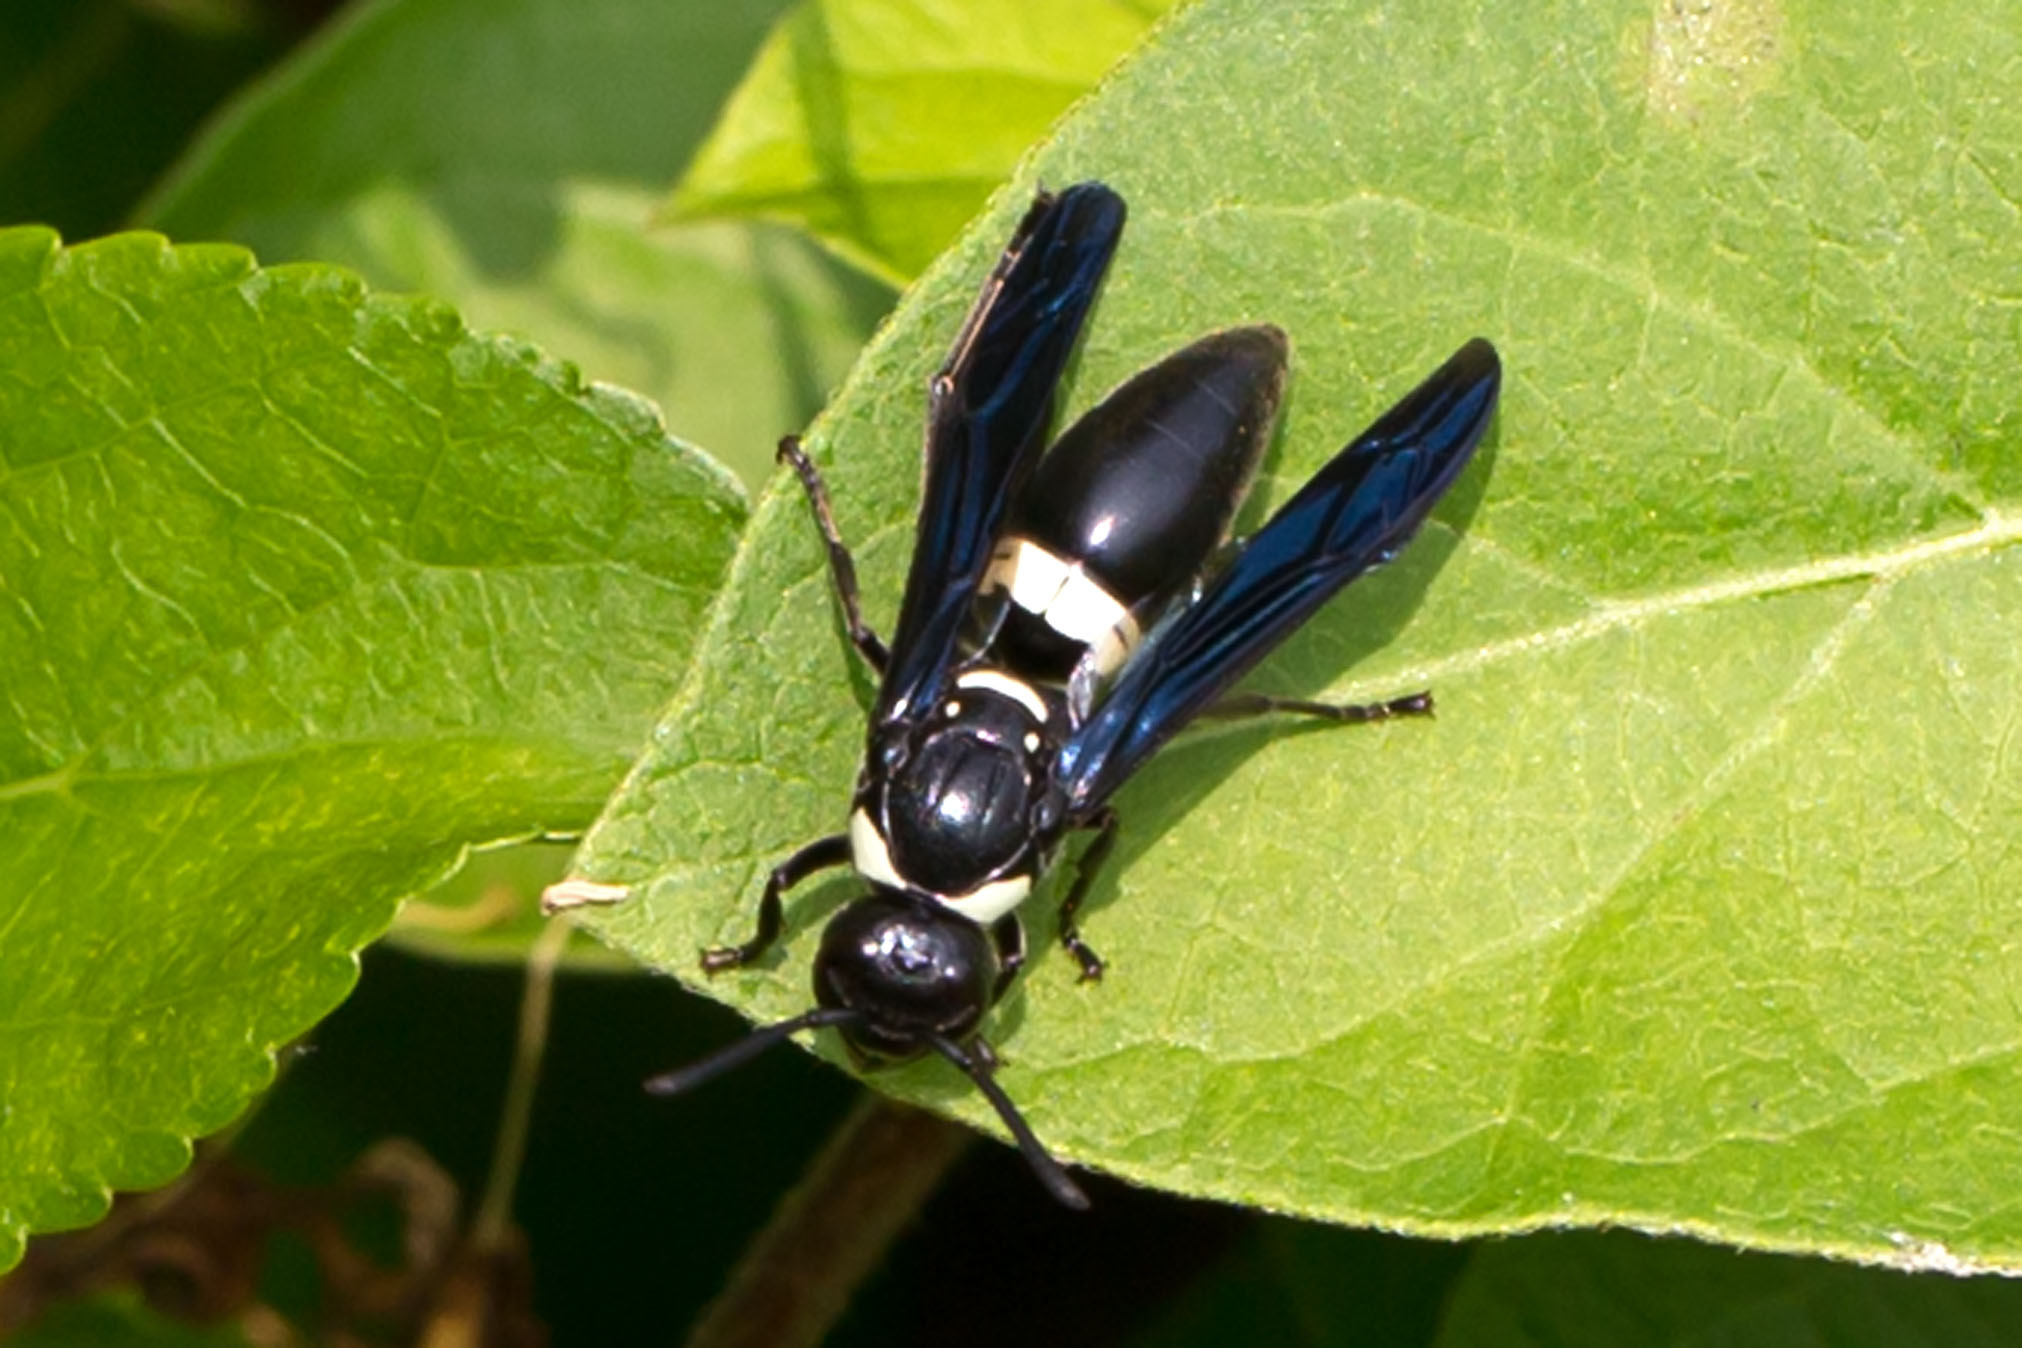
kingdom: Animalia
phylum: Arthropoda
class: Insecta
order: Hymenoptera
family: Eumenidae
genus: Monobia
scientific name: Monobia quadridens
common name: Four-toothed mason wasp
